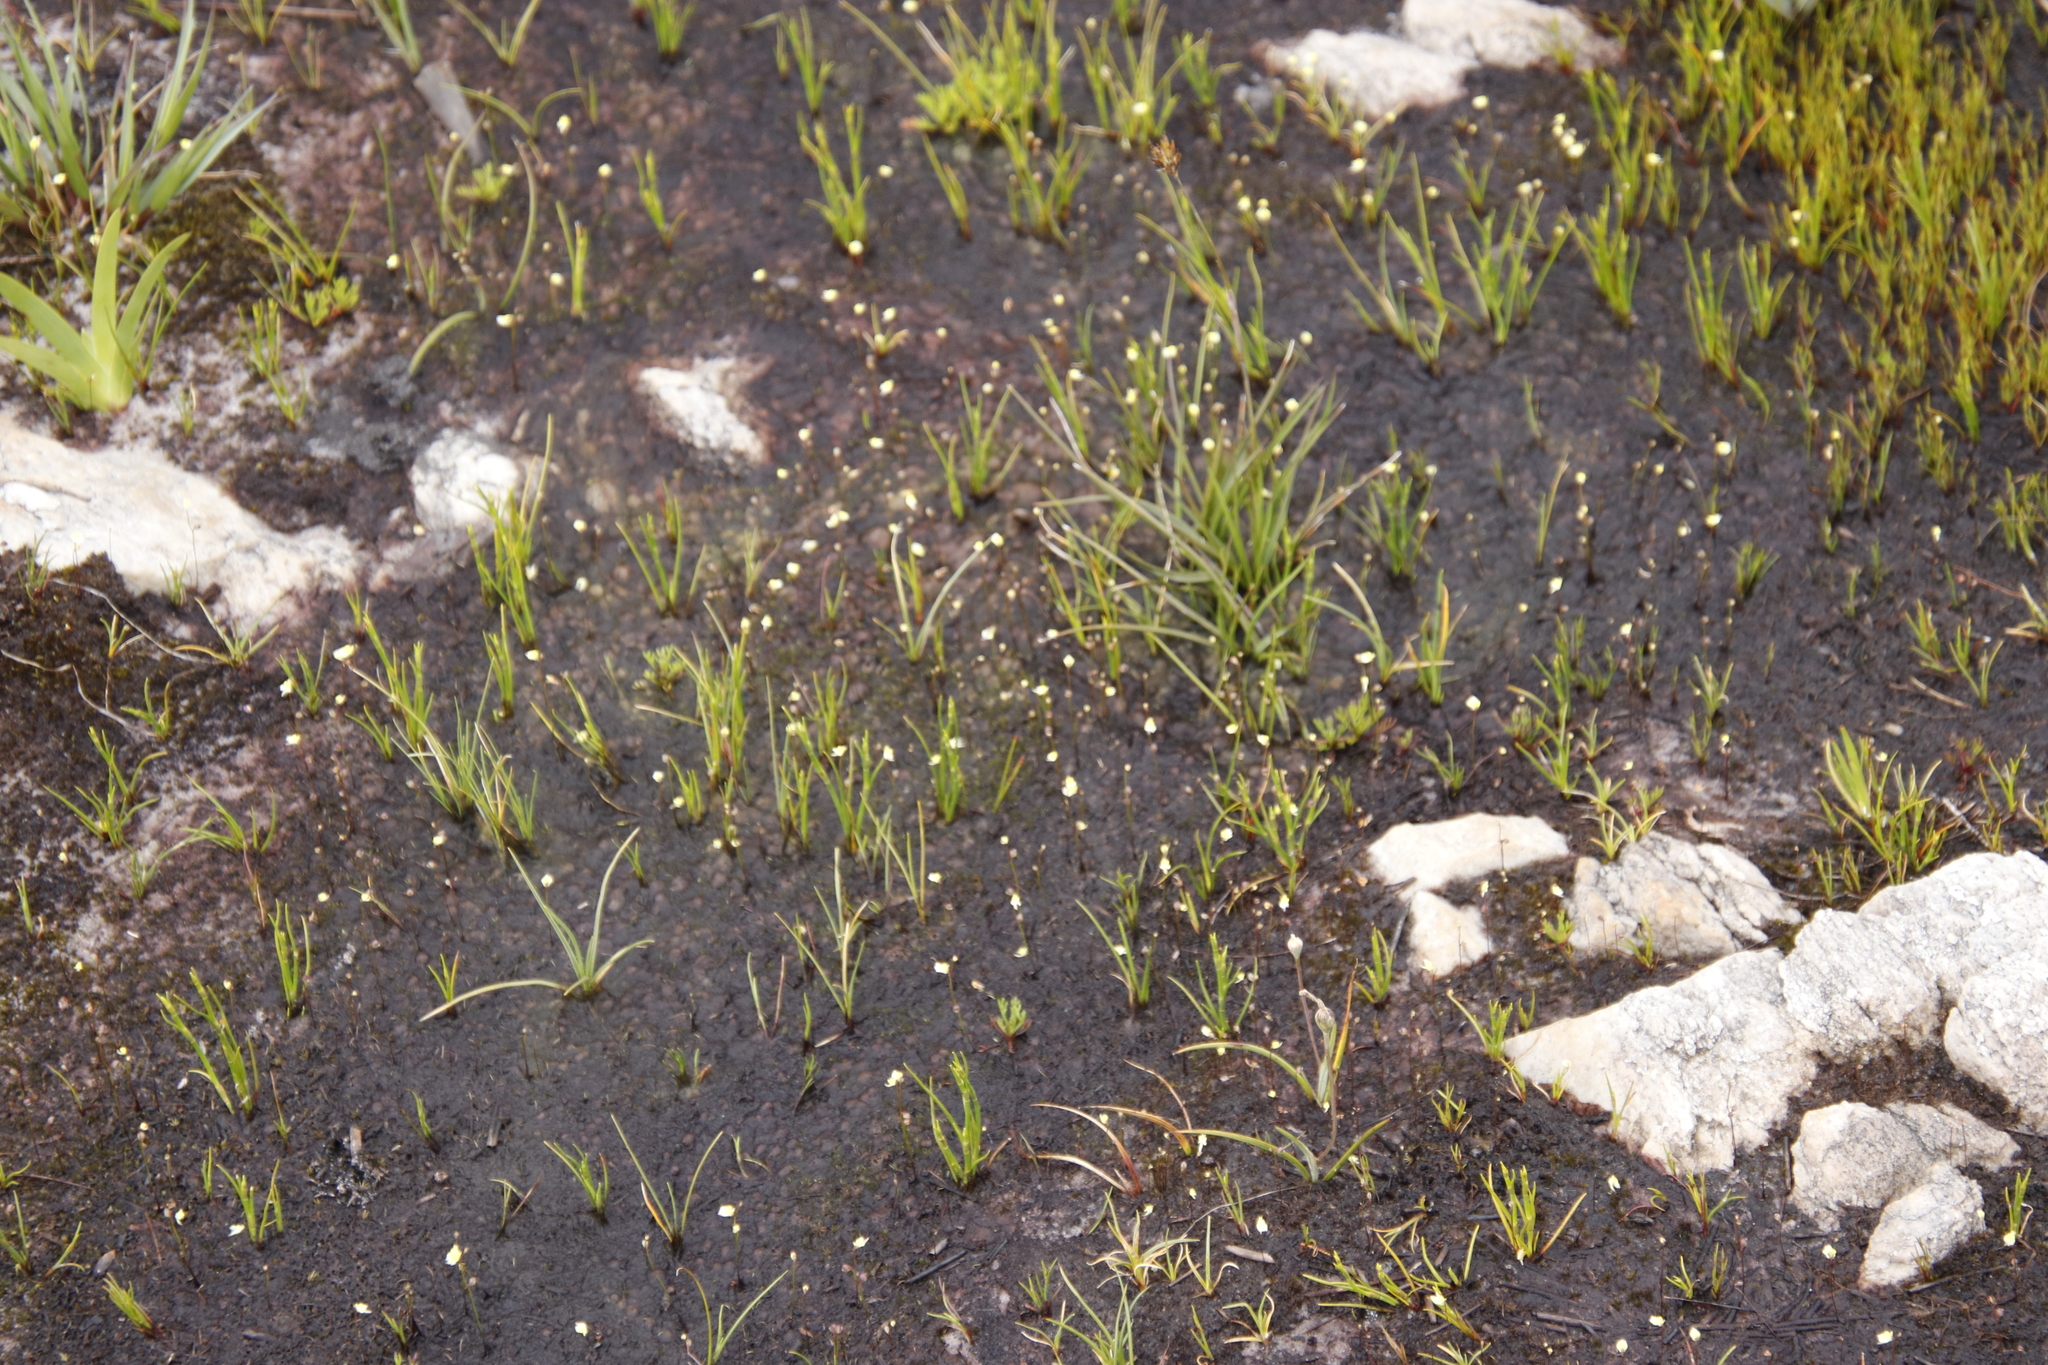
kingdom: Plantae
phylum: Tracheophyta
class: Magnoliopsida
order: Lamiales
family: Lentibulariaceae
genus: Utricularia
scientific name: Utricularia bisquamata
